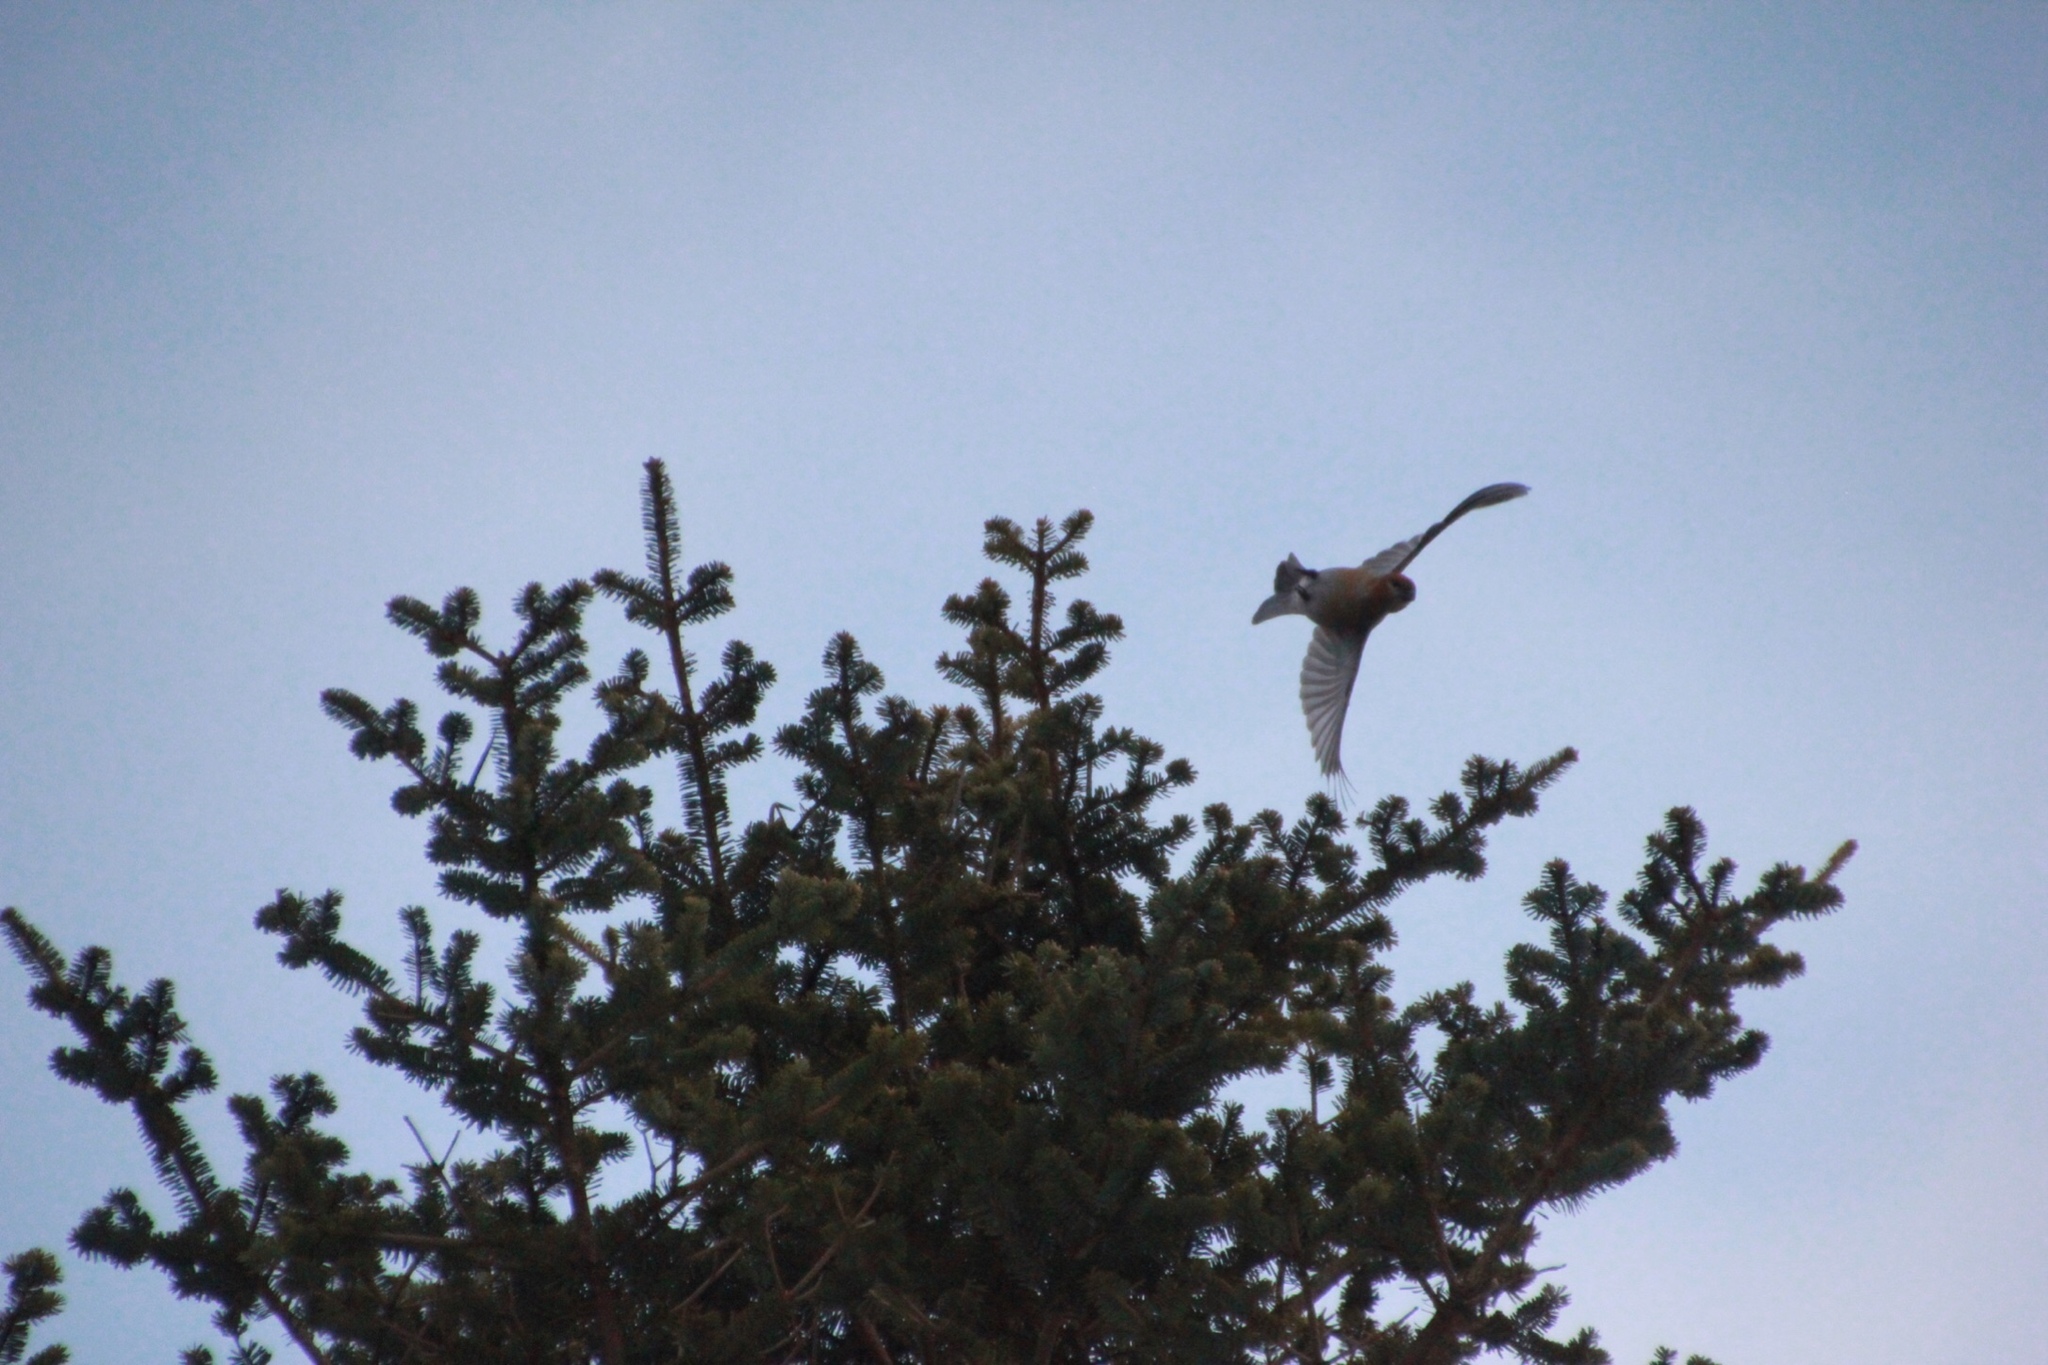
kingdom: Animalia
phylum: Chordata
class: Aves
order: Passeriformes
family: Fringillidae
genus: Pinicola
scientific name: Pinicola enucleator
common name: Pine grosbeak
